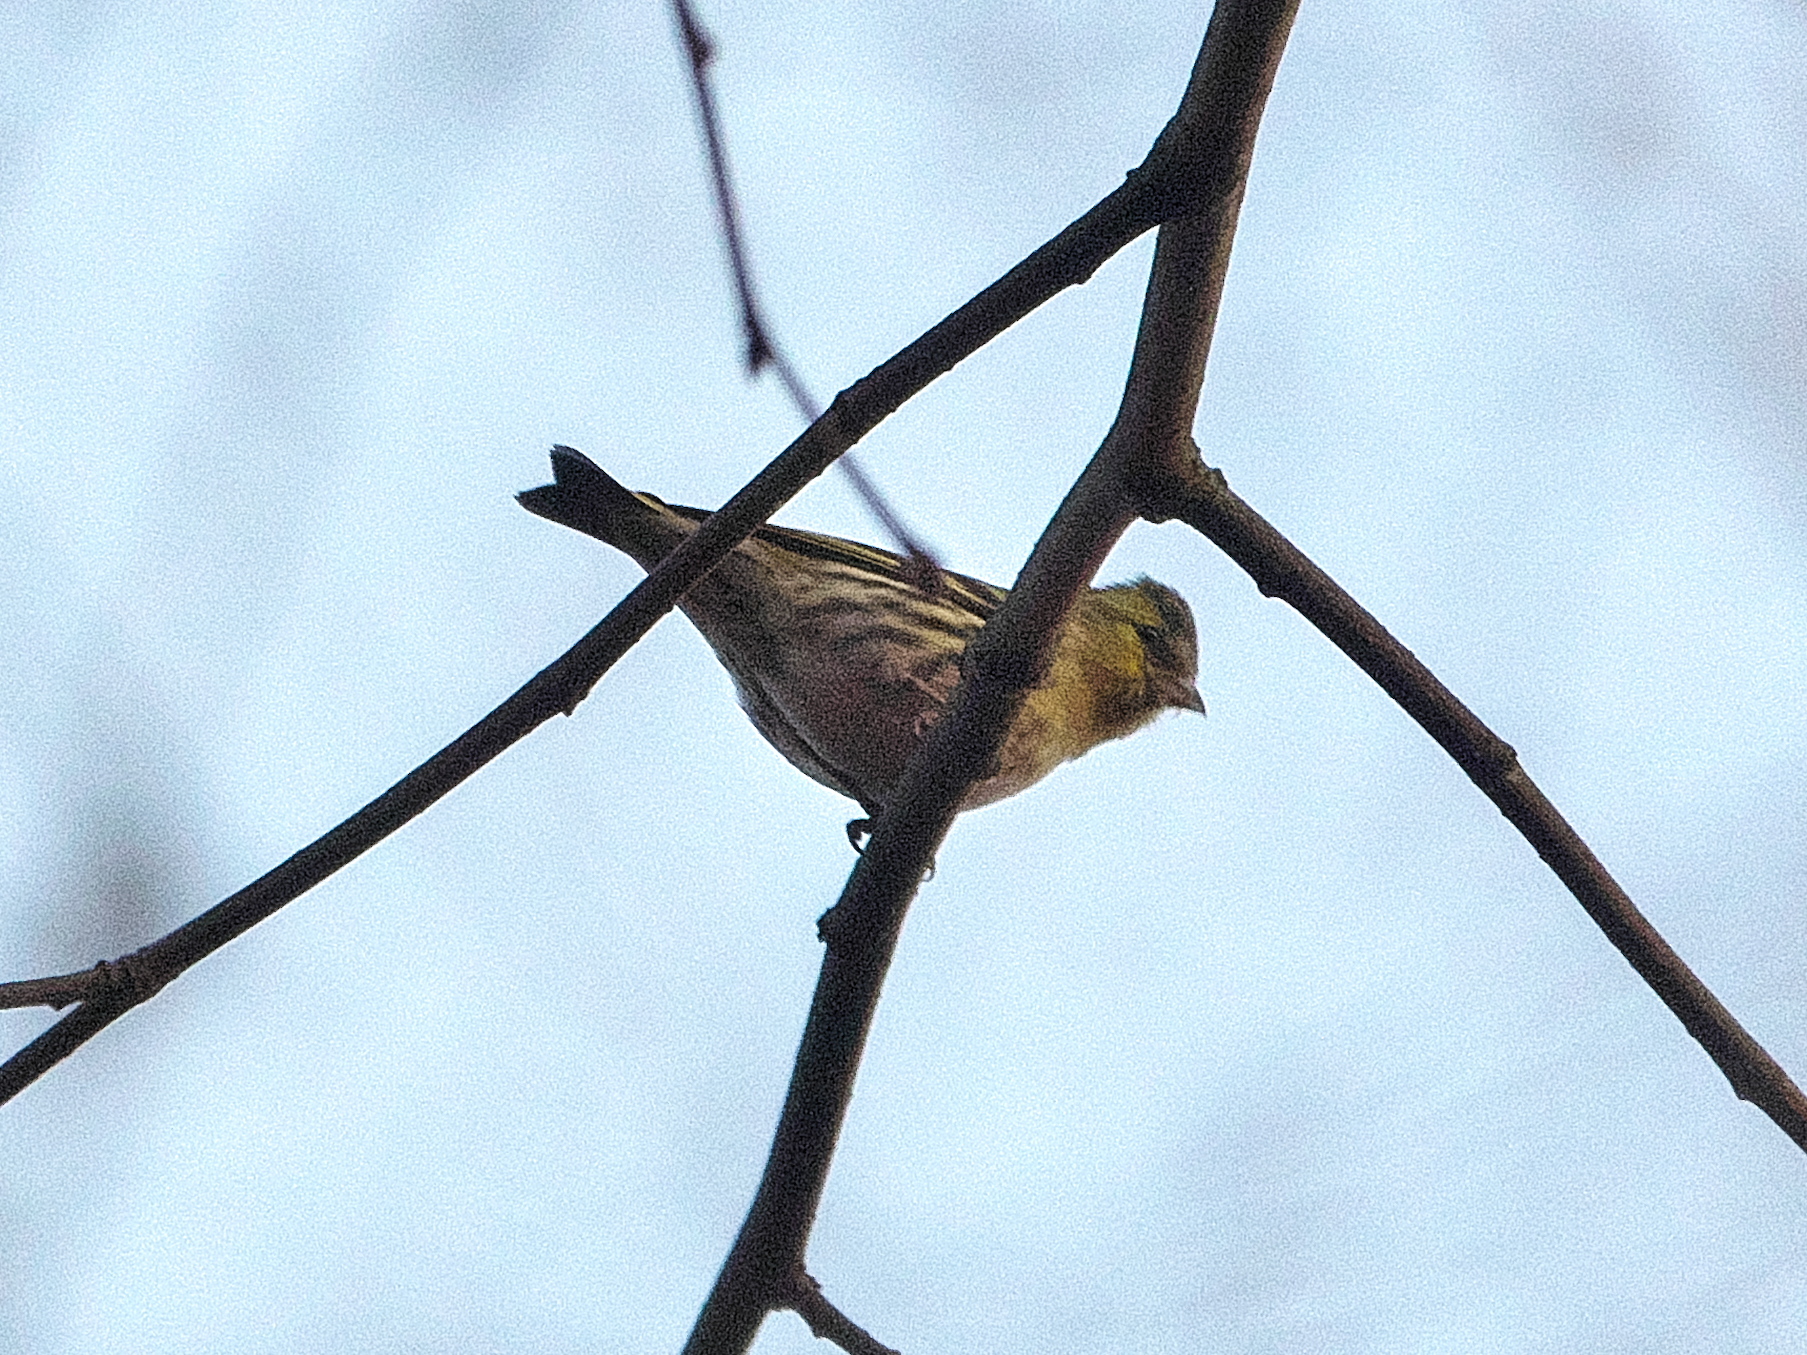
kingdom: Animalia
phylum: Chordata
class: Aves
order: Passeriformes
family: Fringillidae
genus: Spinus
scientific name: Spinus spinus
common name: Eurasian siskin
